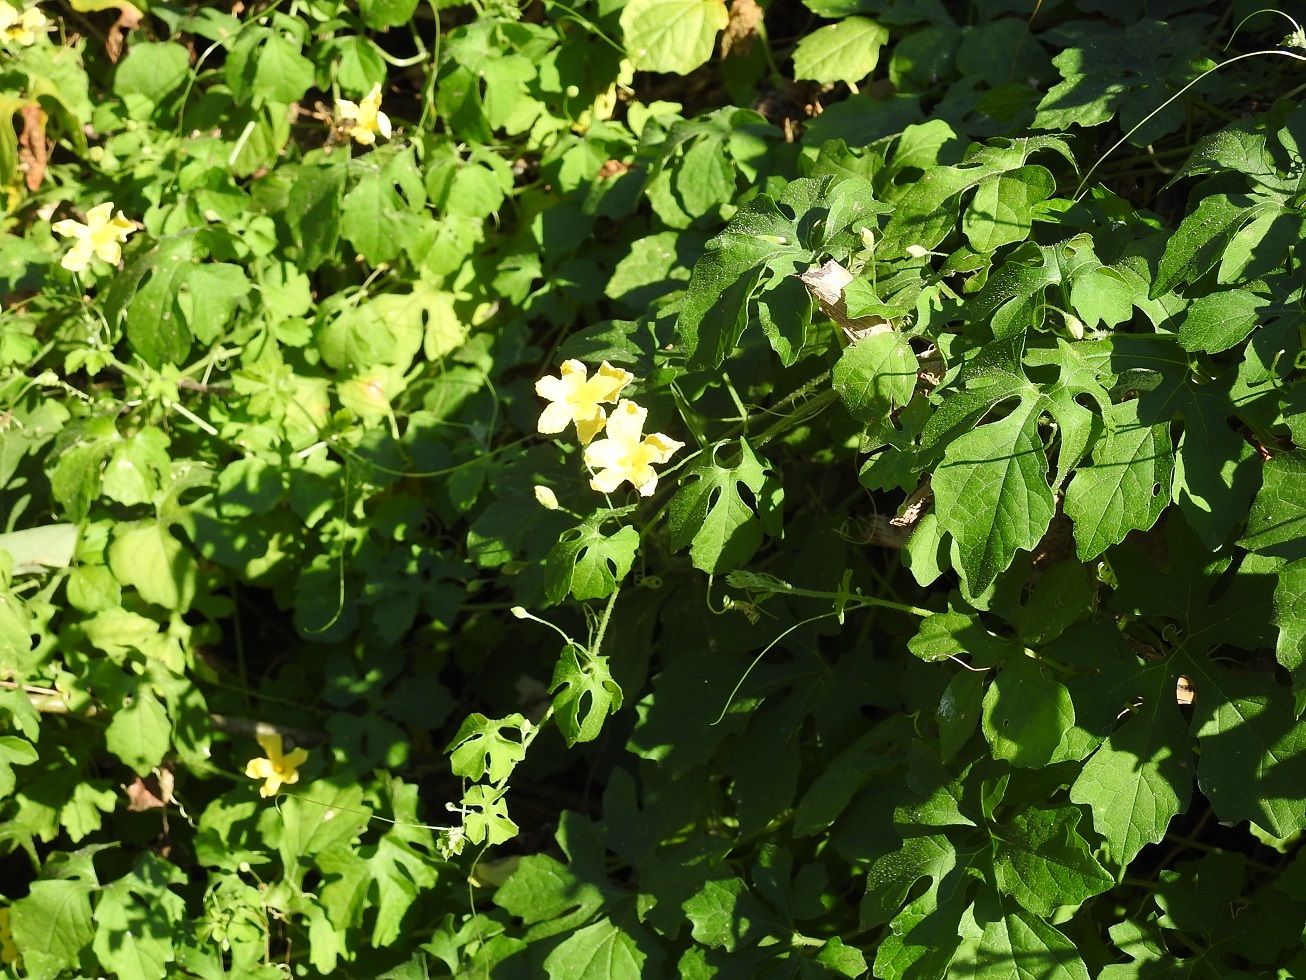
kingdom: Plantae
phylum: Tracheophyta
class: Magnoliopsida
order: Cucurbitales
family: Cucurbitaceae
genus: Momordica
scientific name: Momordica charantia
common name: Balsampear
